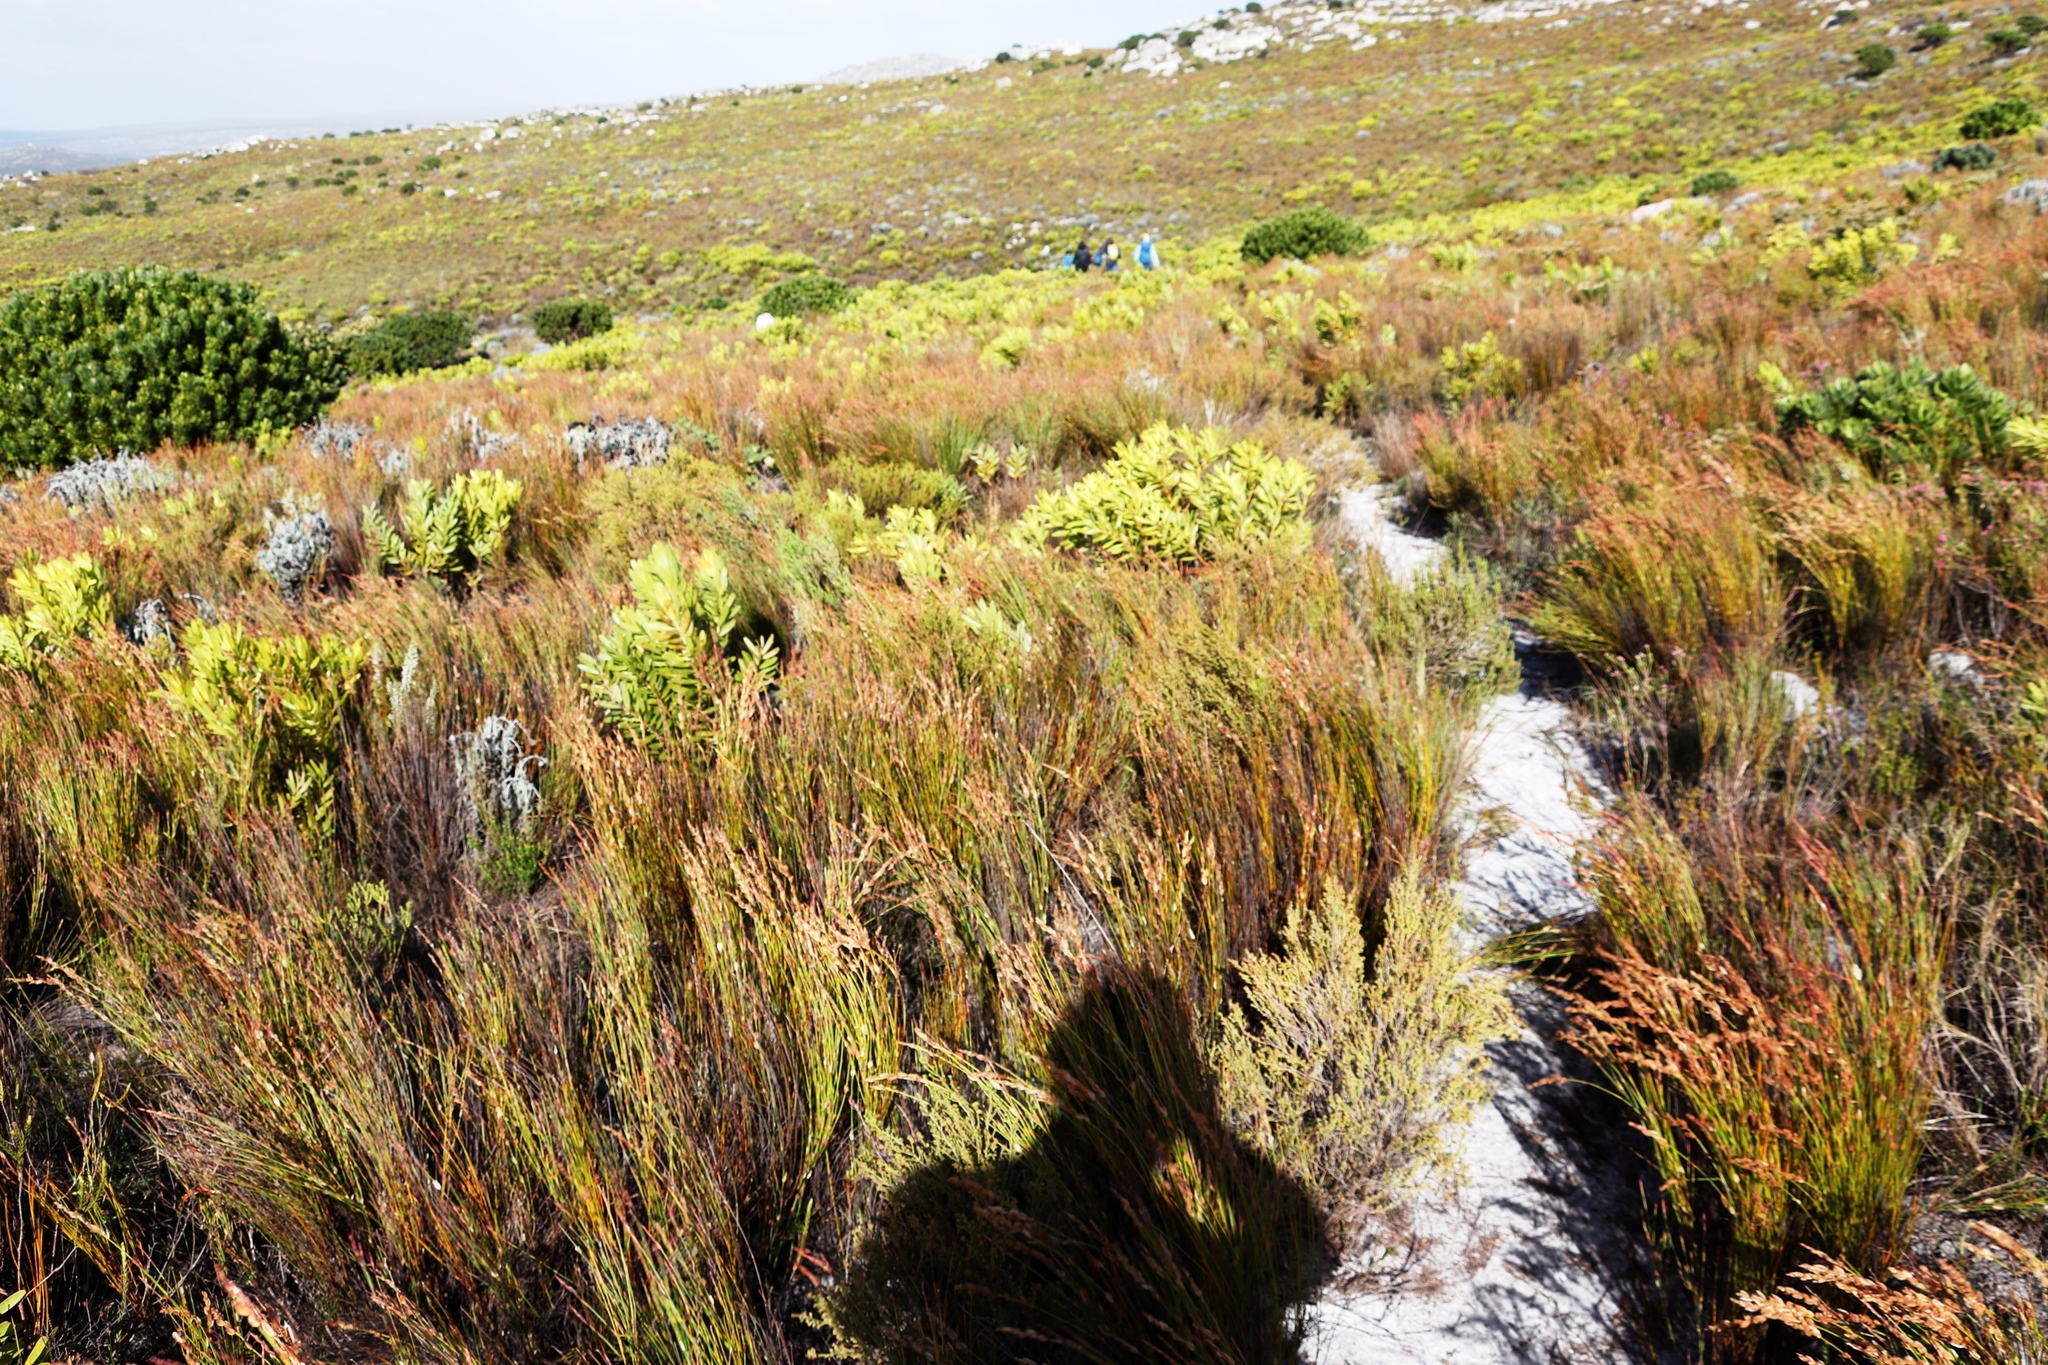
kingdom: Plantae
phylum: Tracheophyta
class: Liliopsida
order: Poales
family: Restionaceae
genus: Elegia
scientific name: Elegia stipularis
